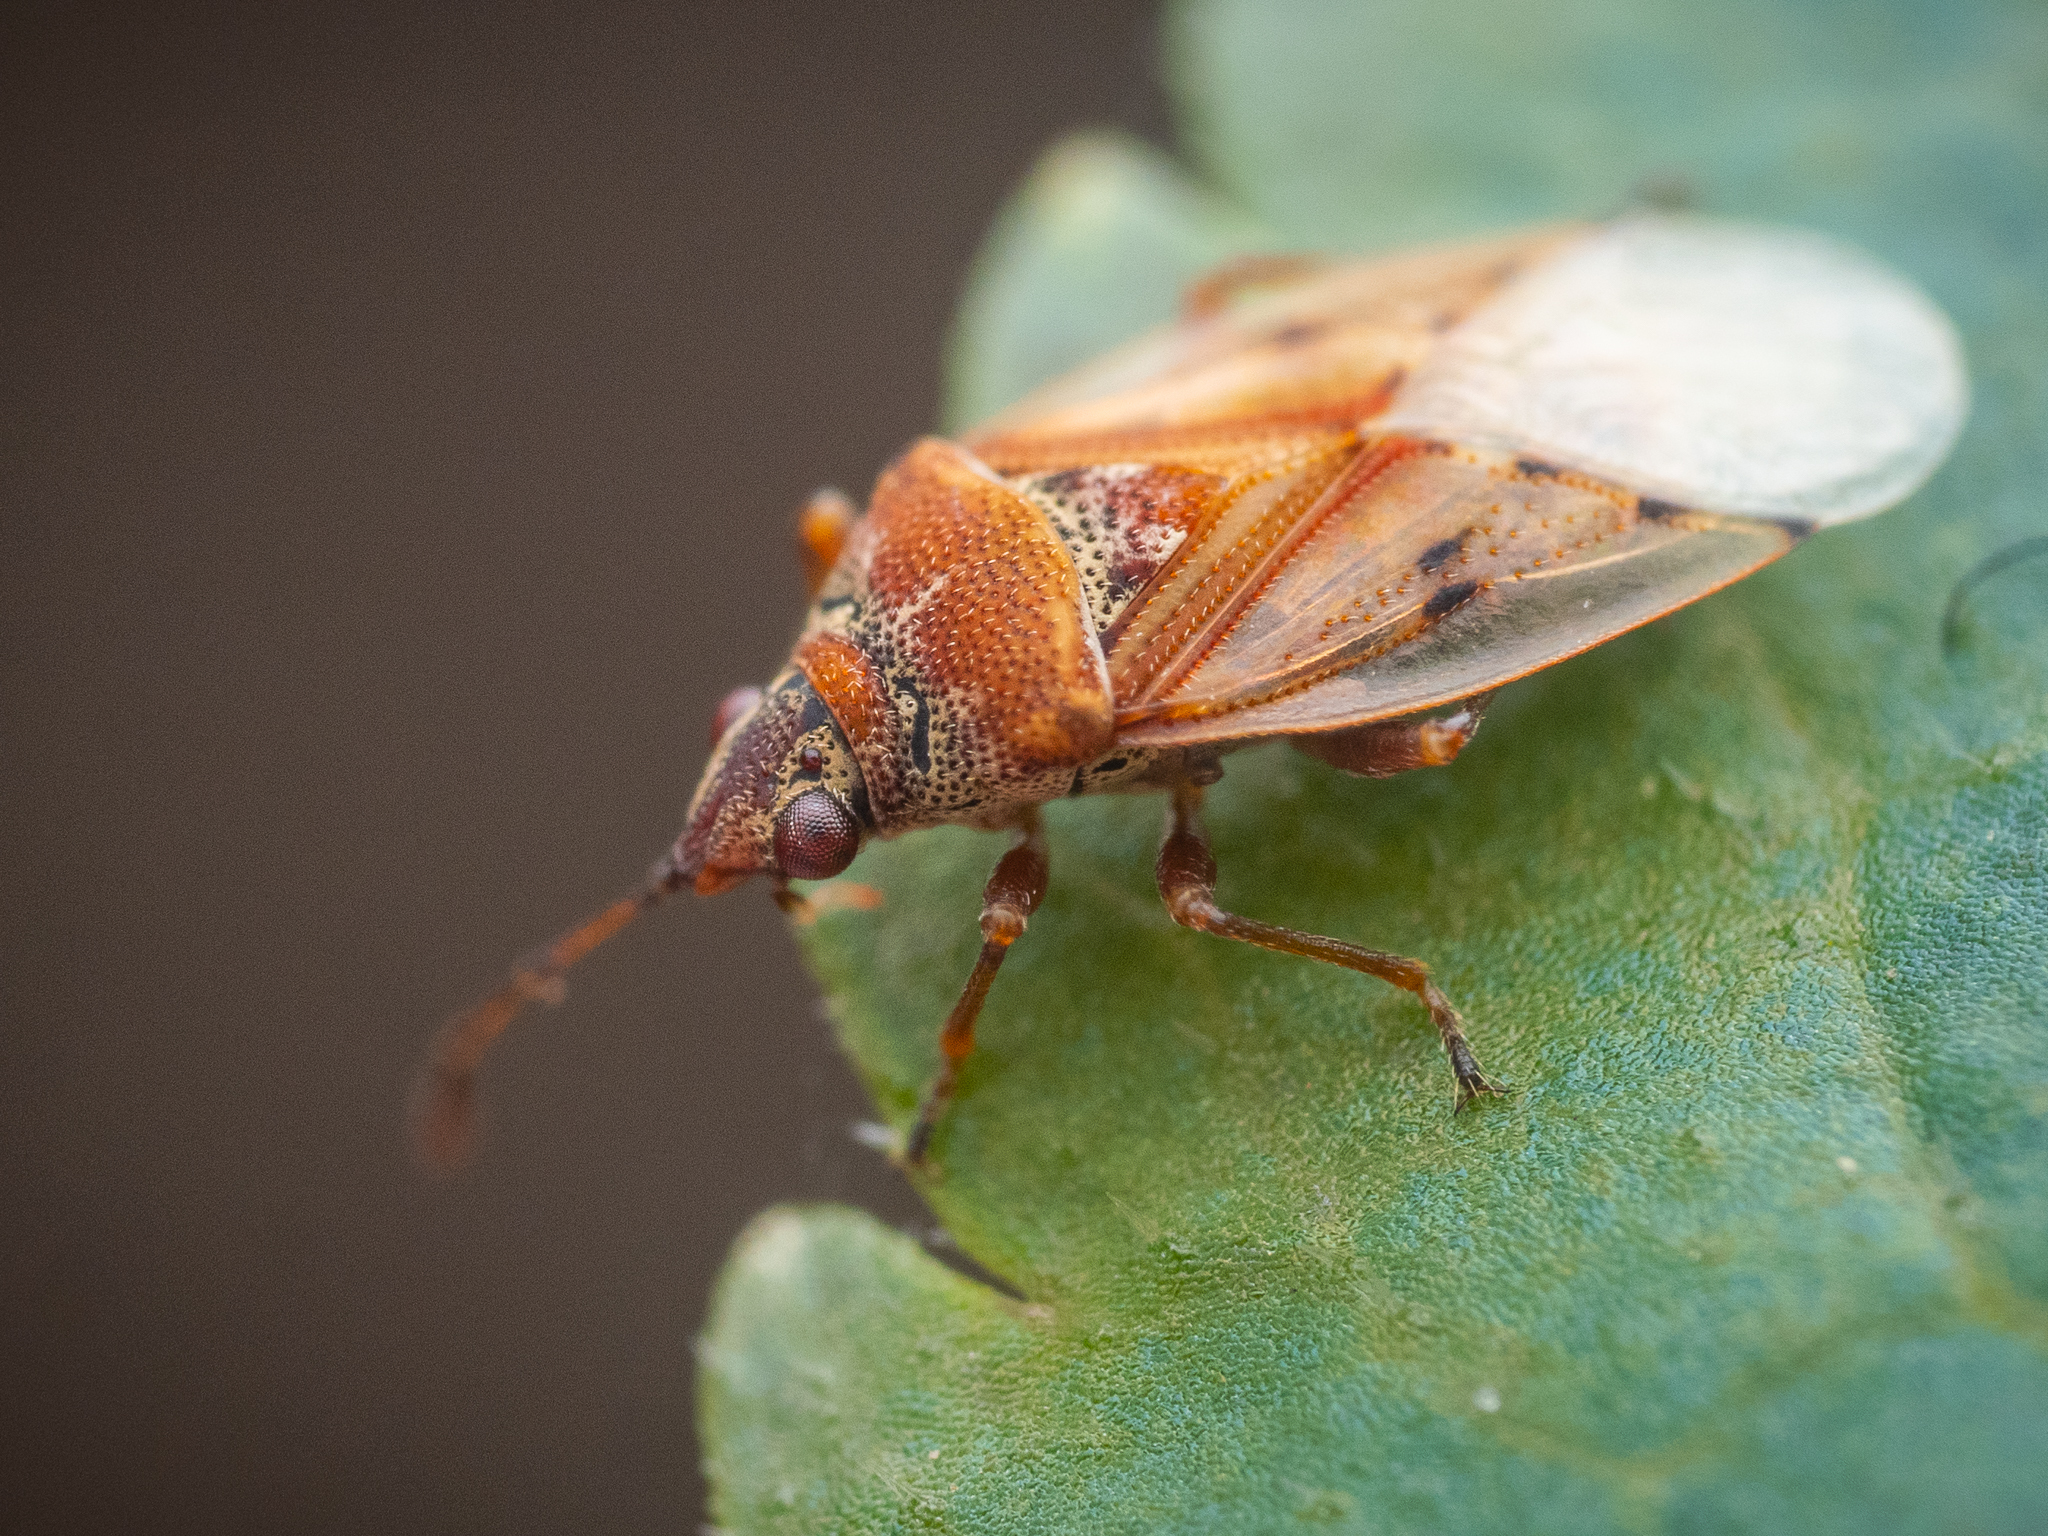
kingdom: Animalia
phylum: Arthropoda
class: Insecta
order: Hemiptera
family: Lygaeidae
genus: Kleidocerys
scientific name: Kleidocerys resedae
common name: Birch catkin bug
